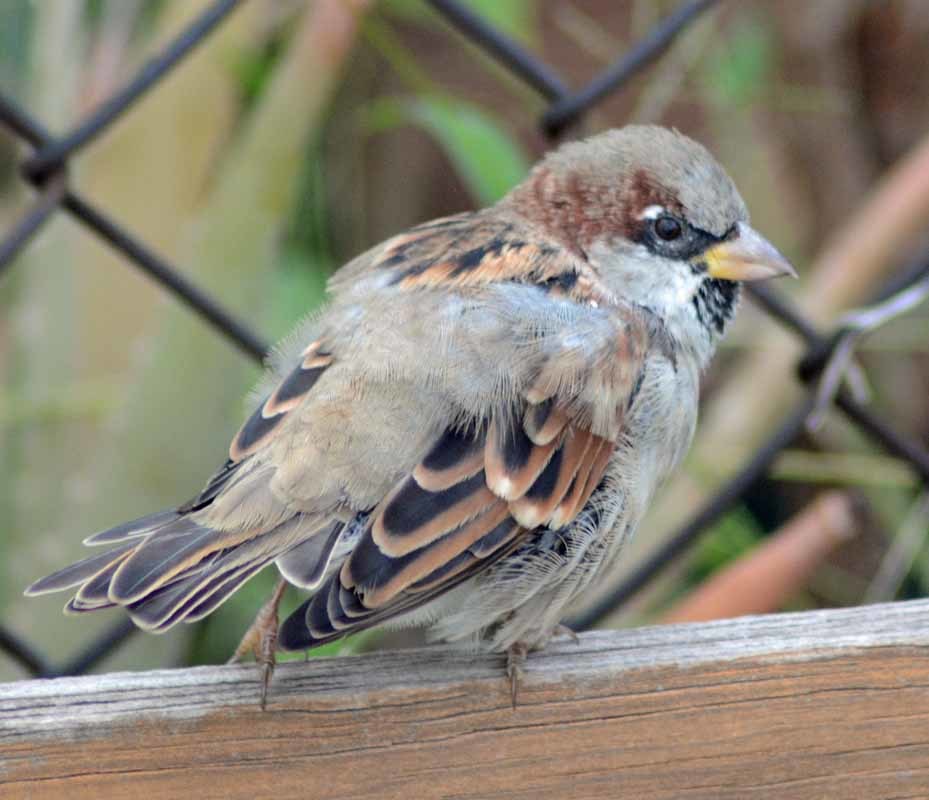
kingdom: Animalia
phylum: Chordata
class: Aves
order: Passeriformes
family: Passeridae
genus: Passer
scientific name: Passer domesticus
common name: House sparrow
